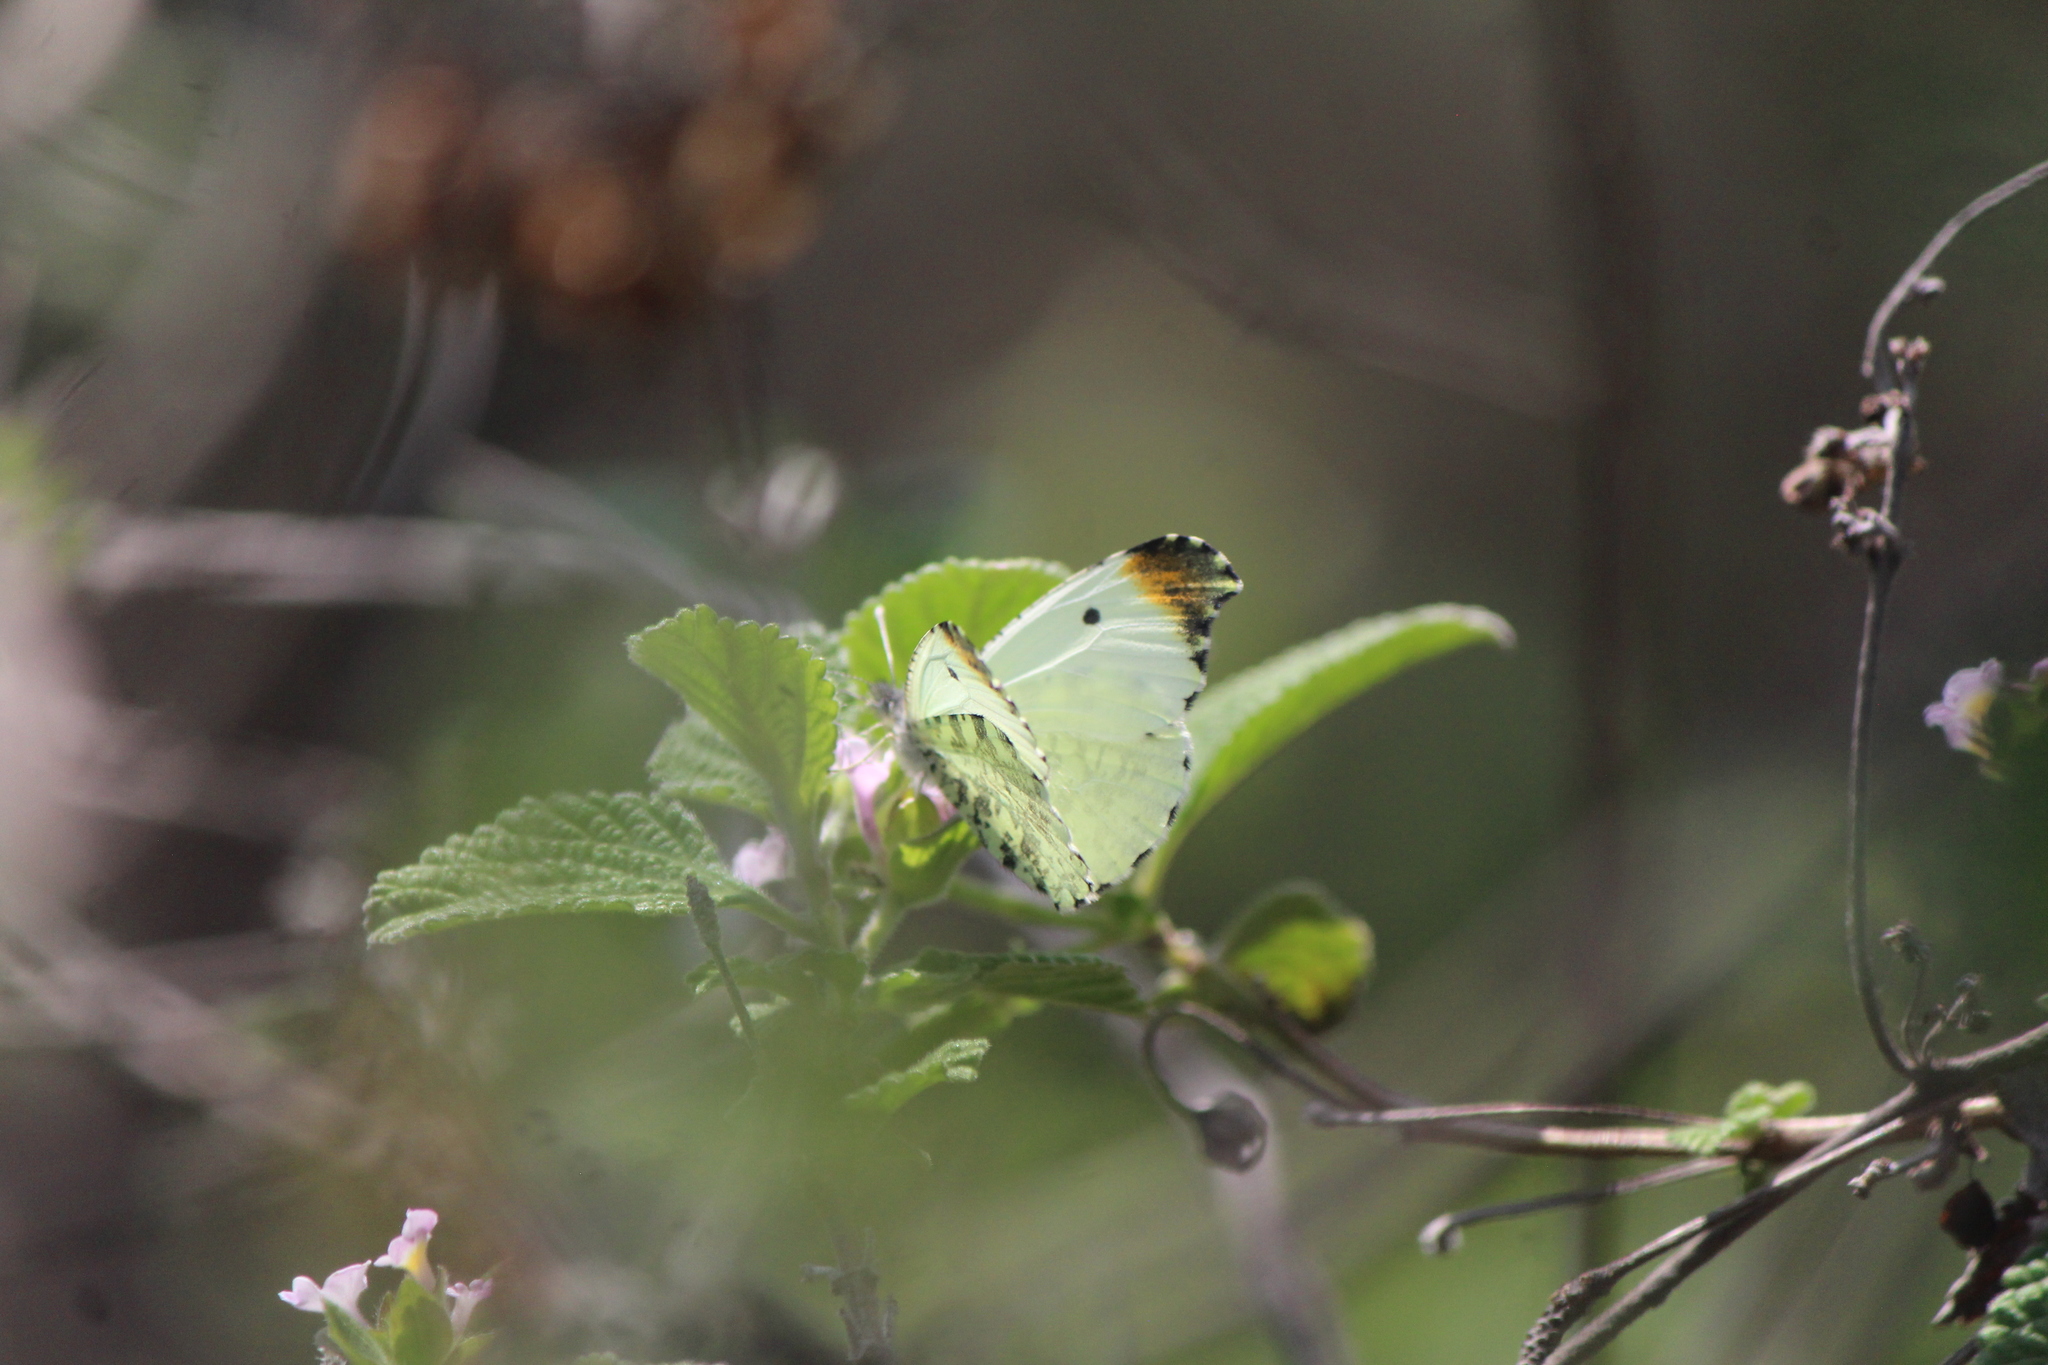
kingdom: Animalia
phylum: Arthropoda
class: Insecta
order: Lepidoptera
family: Pieridae
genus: Anthocharis
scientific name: Anthocharis limonea
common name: Mexican orangetip
